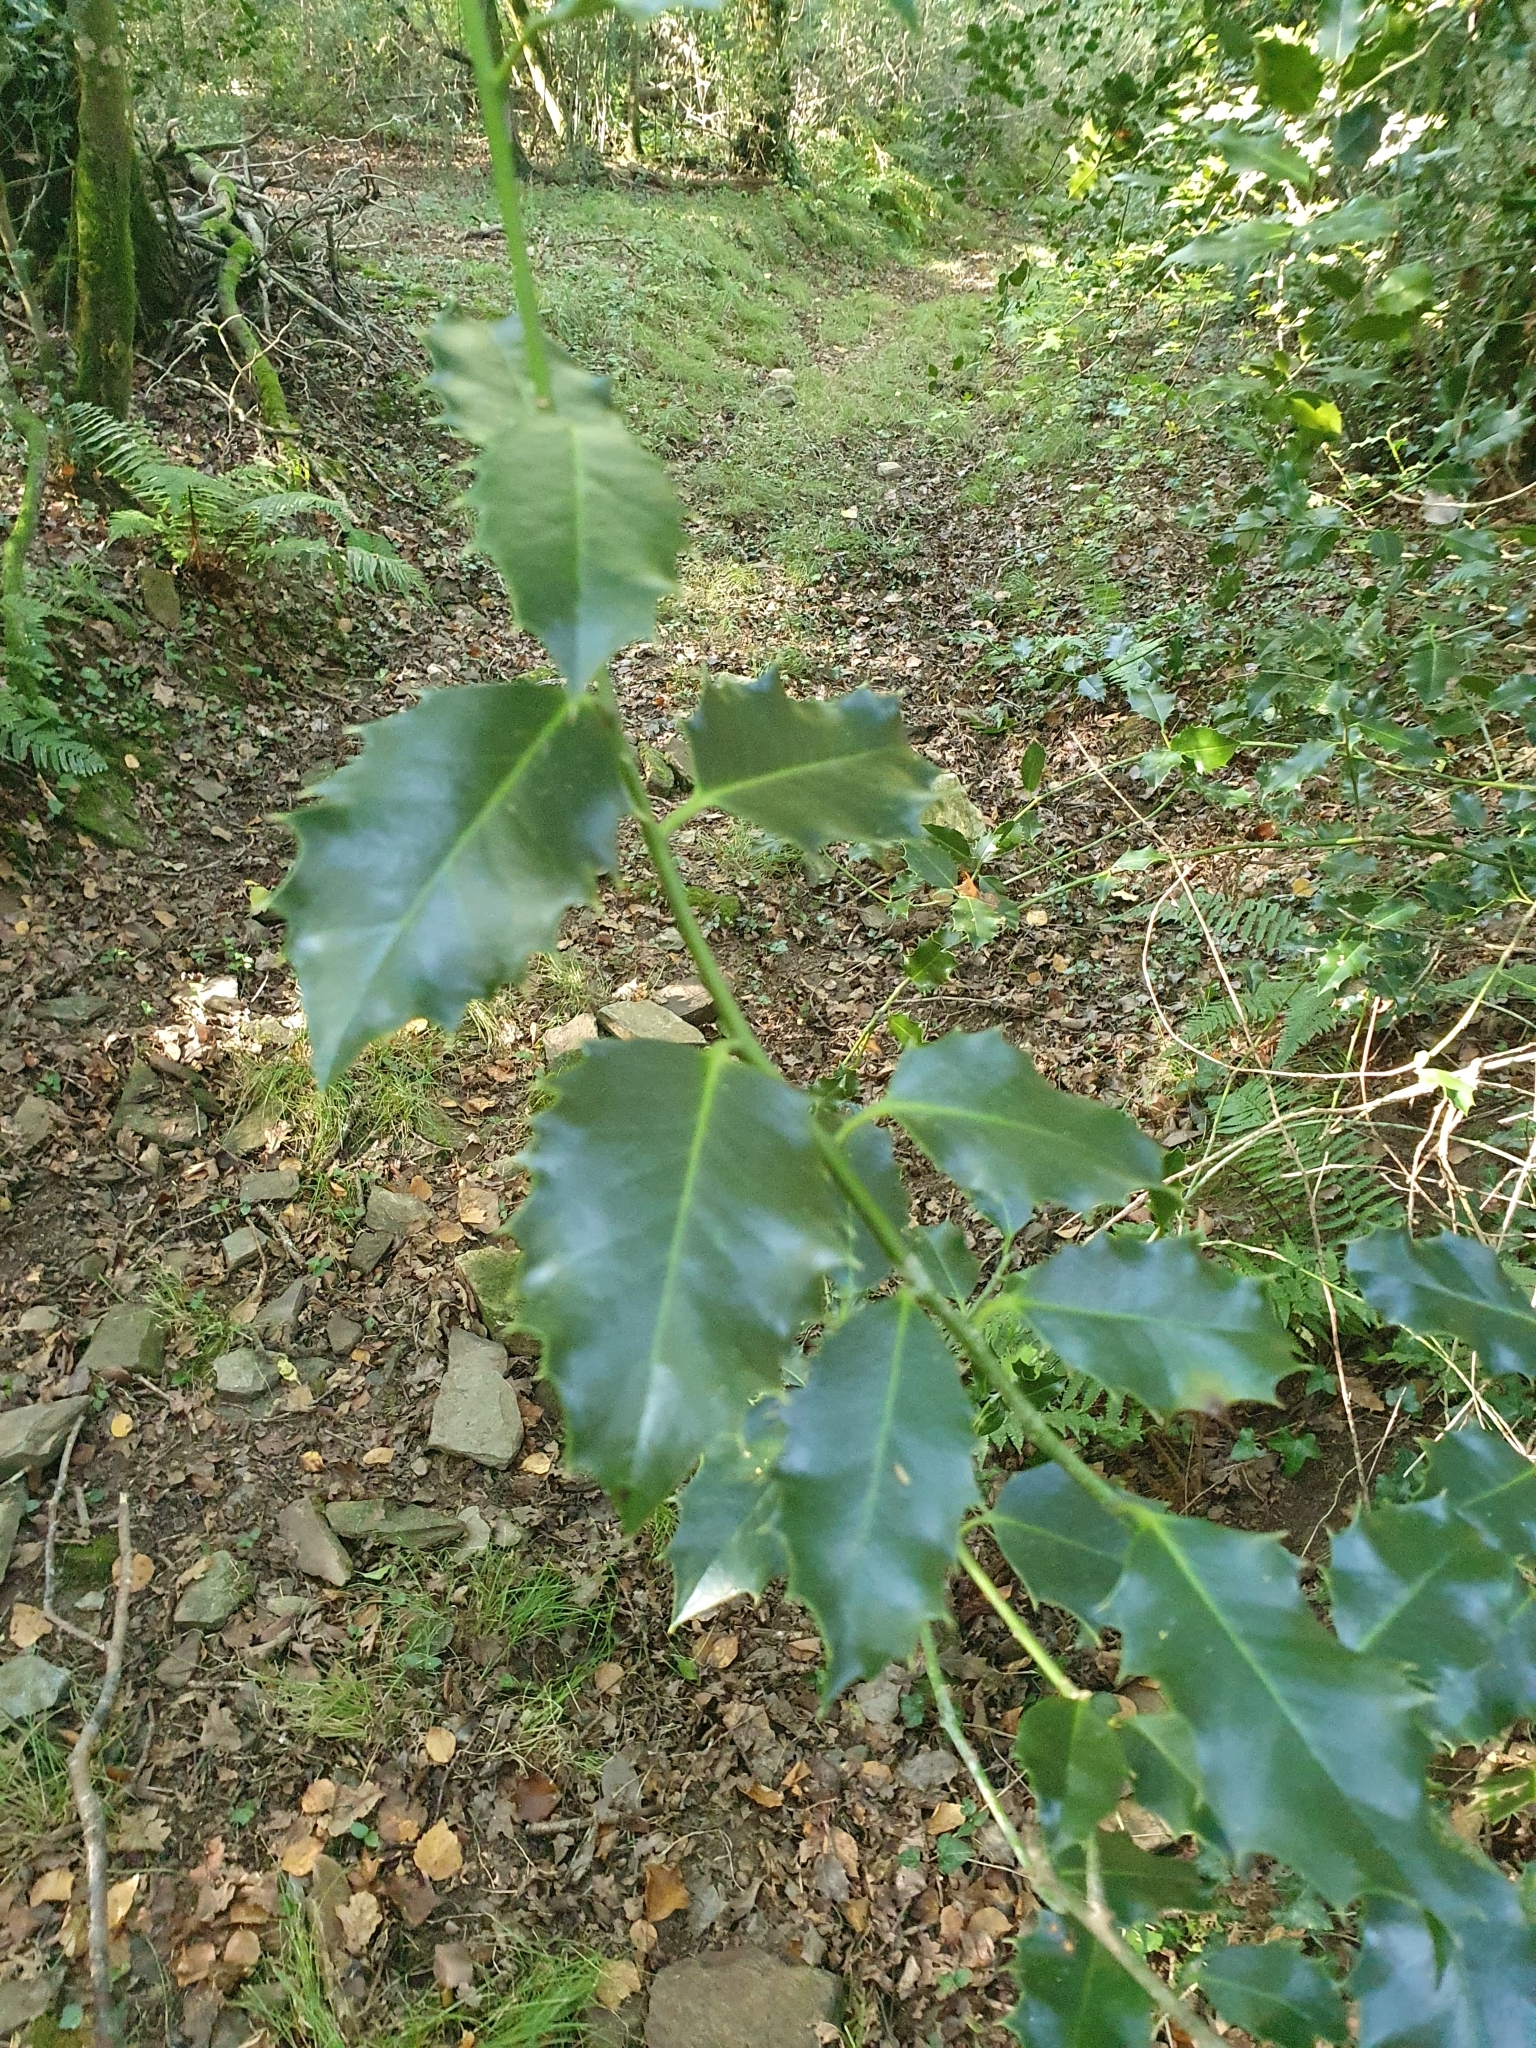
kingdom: Plantae
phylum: Tracheophyta
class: Magnoliopsida
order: Aquifoliales
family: Aquifoliaceae
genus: Ilex
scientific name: Ilex aquifolium
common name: English holly
